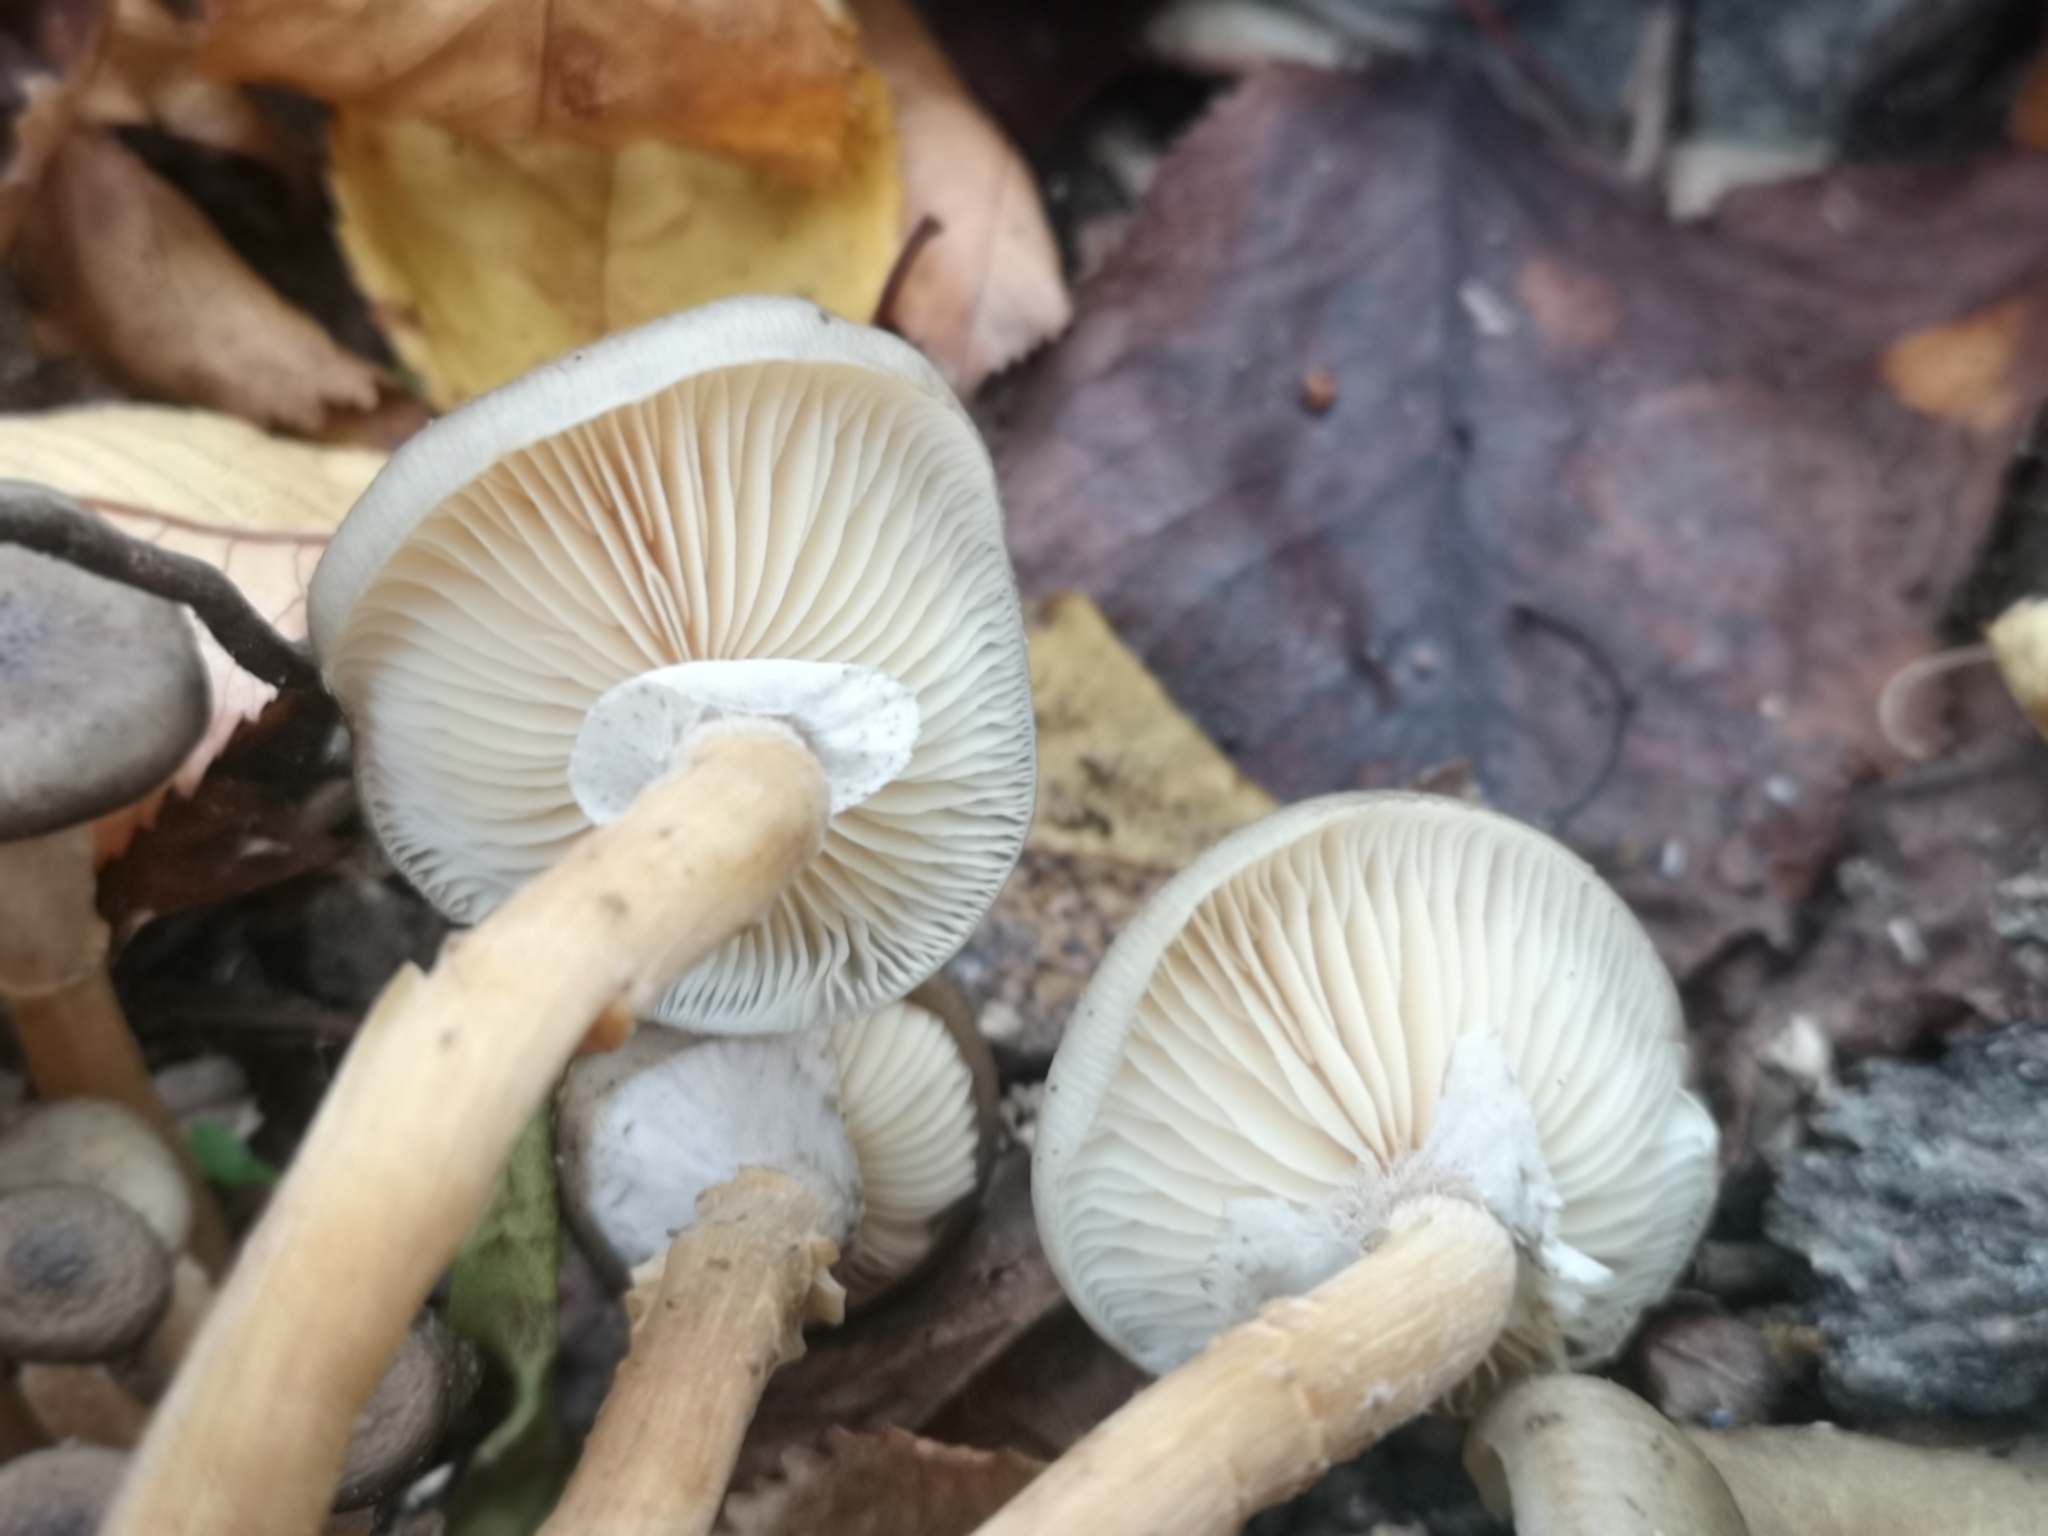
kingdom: Fungi
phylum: Basidiomycota
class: Agaricomycetes
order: Agaricales
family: Physalacriaceae
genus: Armillaria
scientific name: Armillaria novae-zelandiae
